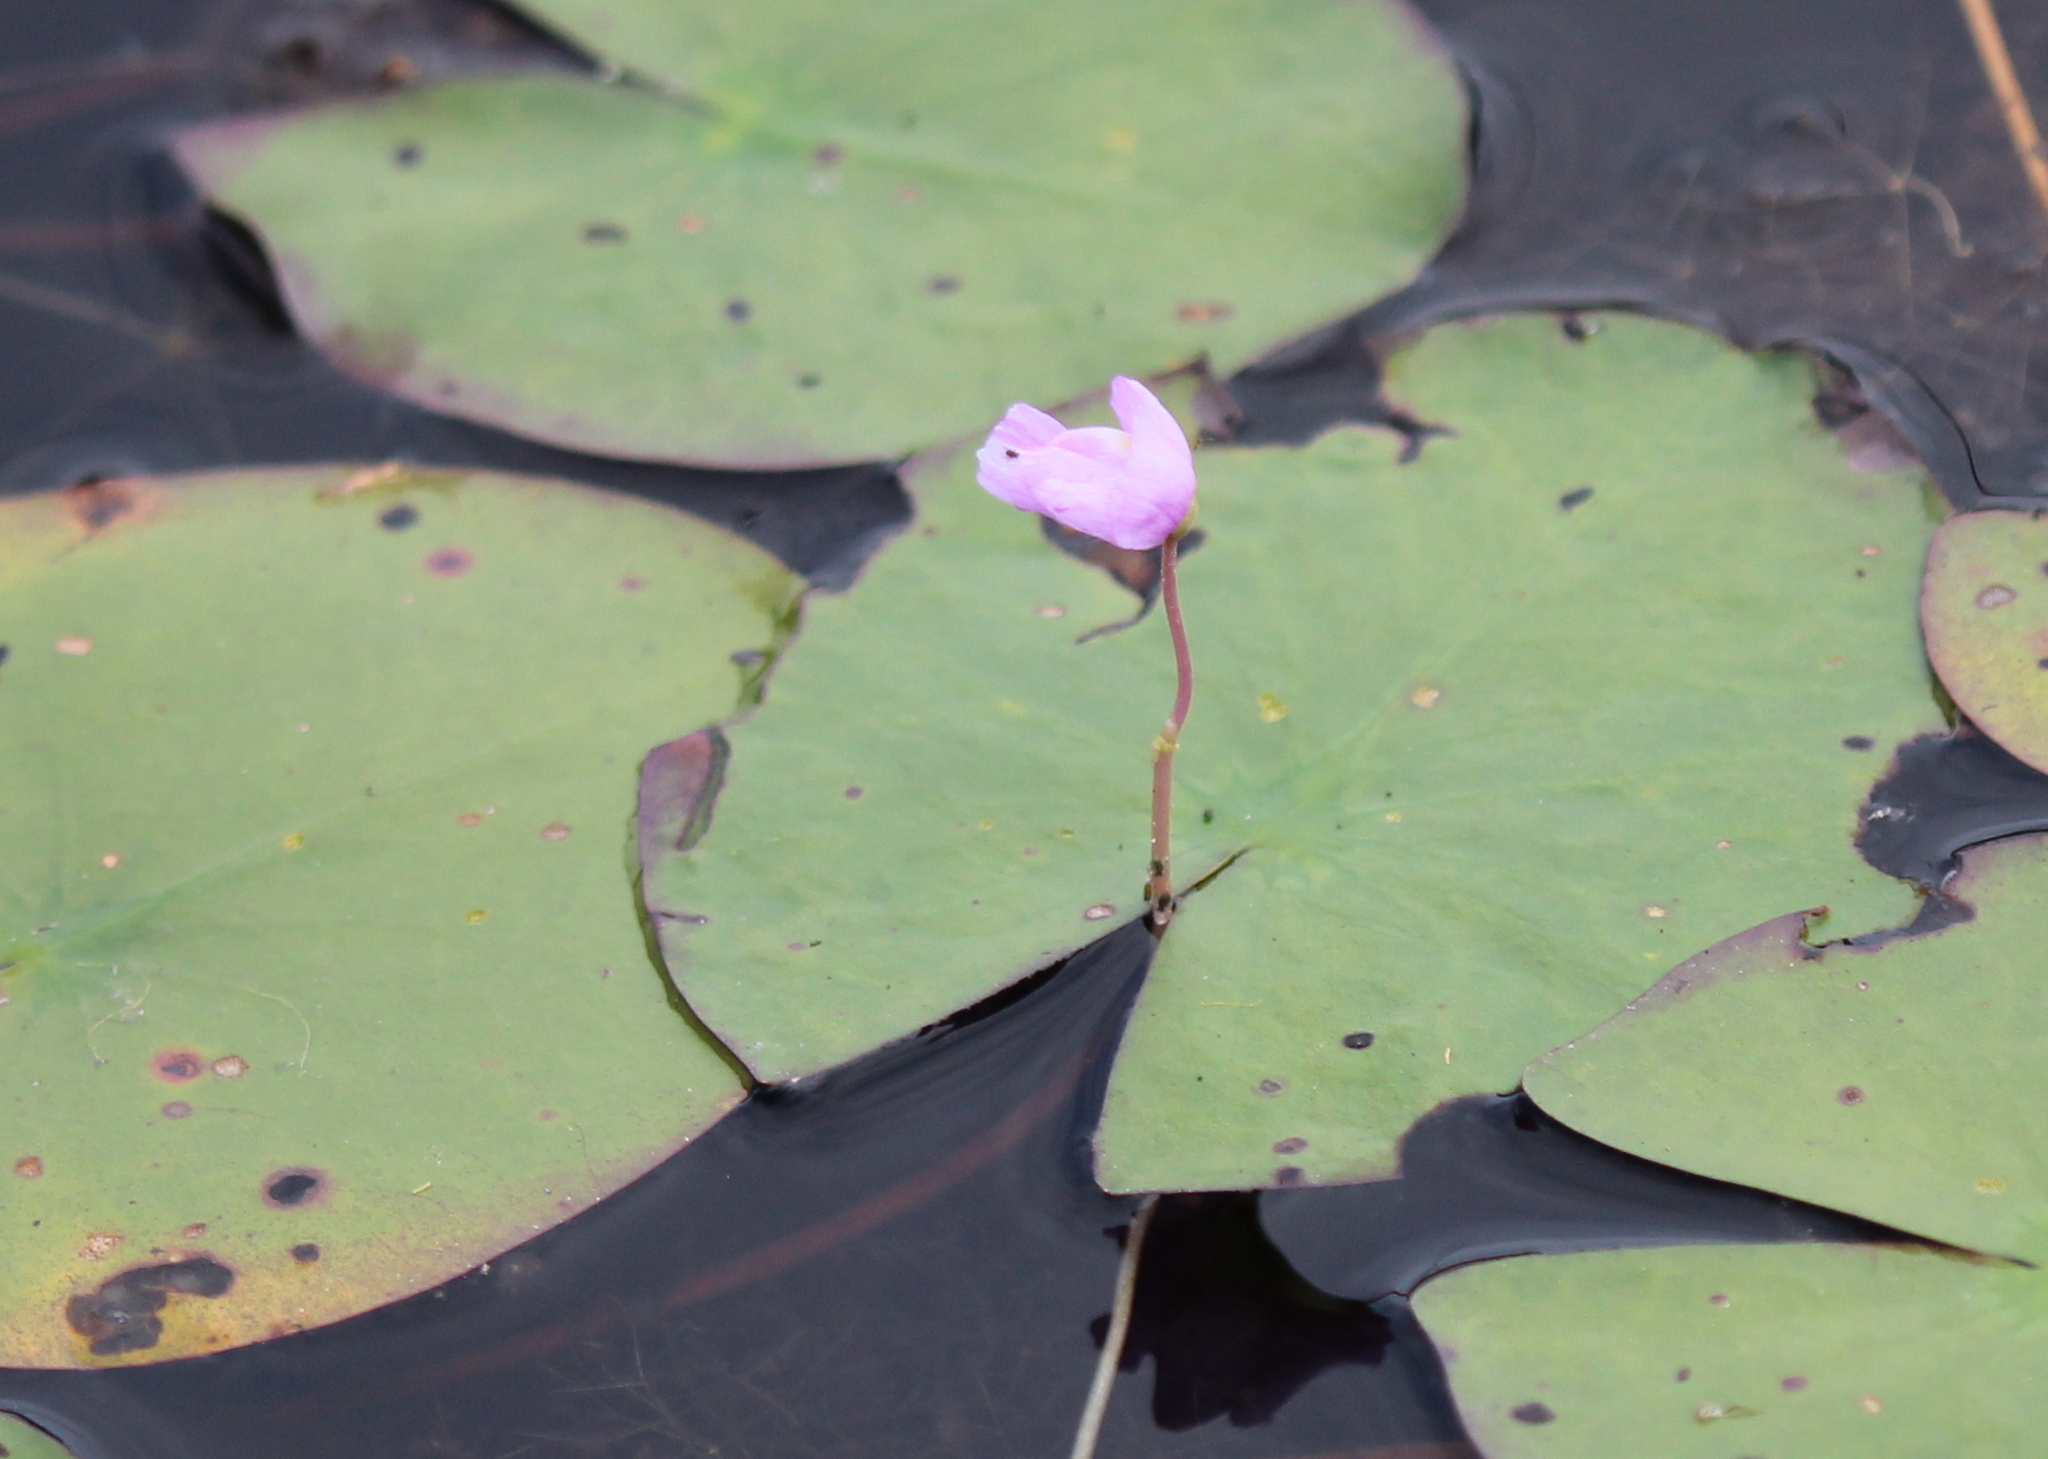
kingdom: Plantae
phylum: Tracheophyta
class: Magnoliopsida
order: Lamiales
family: Lentibulariaceae
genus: Utricularia
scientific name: Utricularia purpurea
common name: Eastern purple bladderwort
